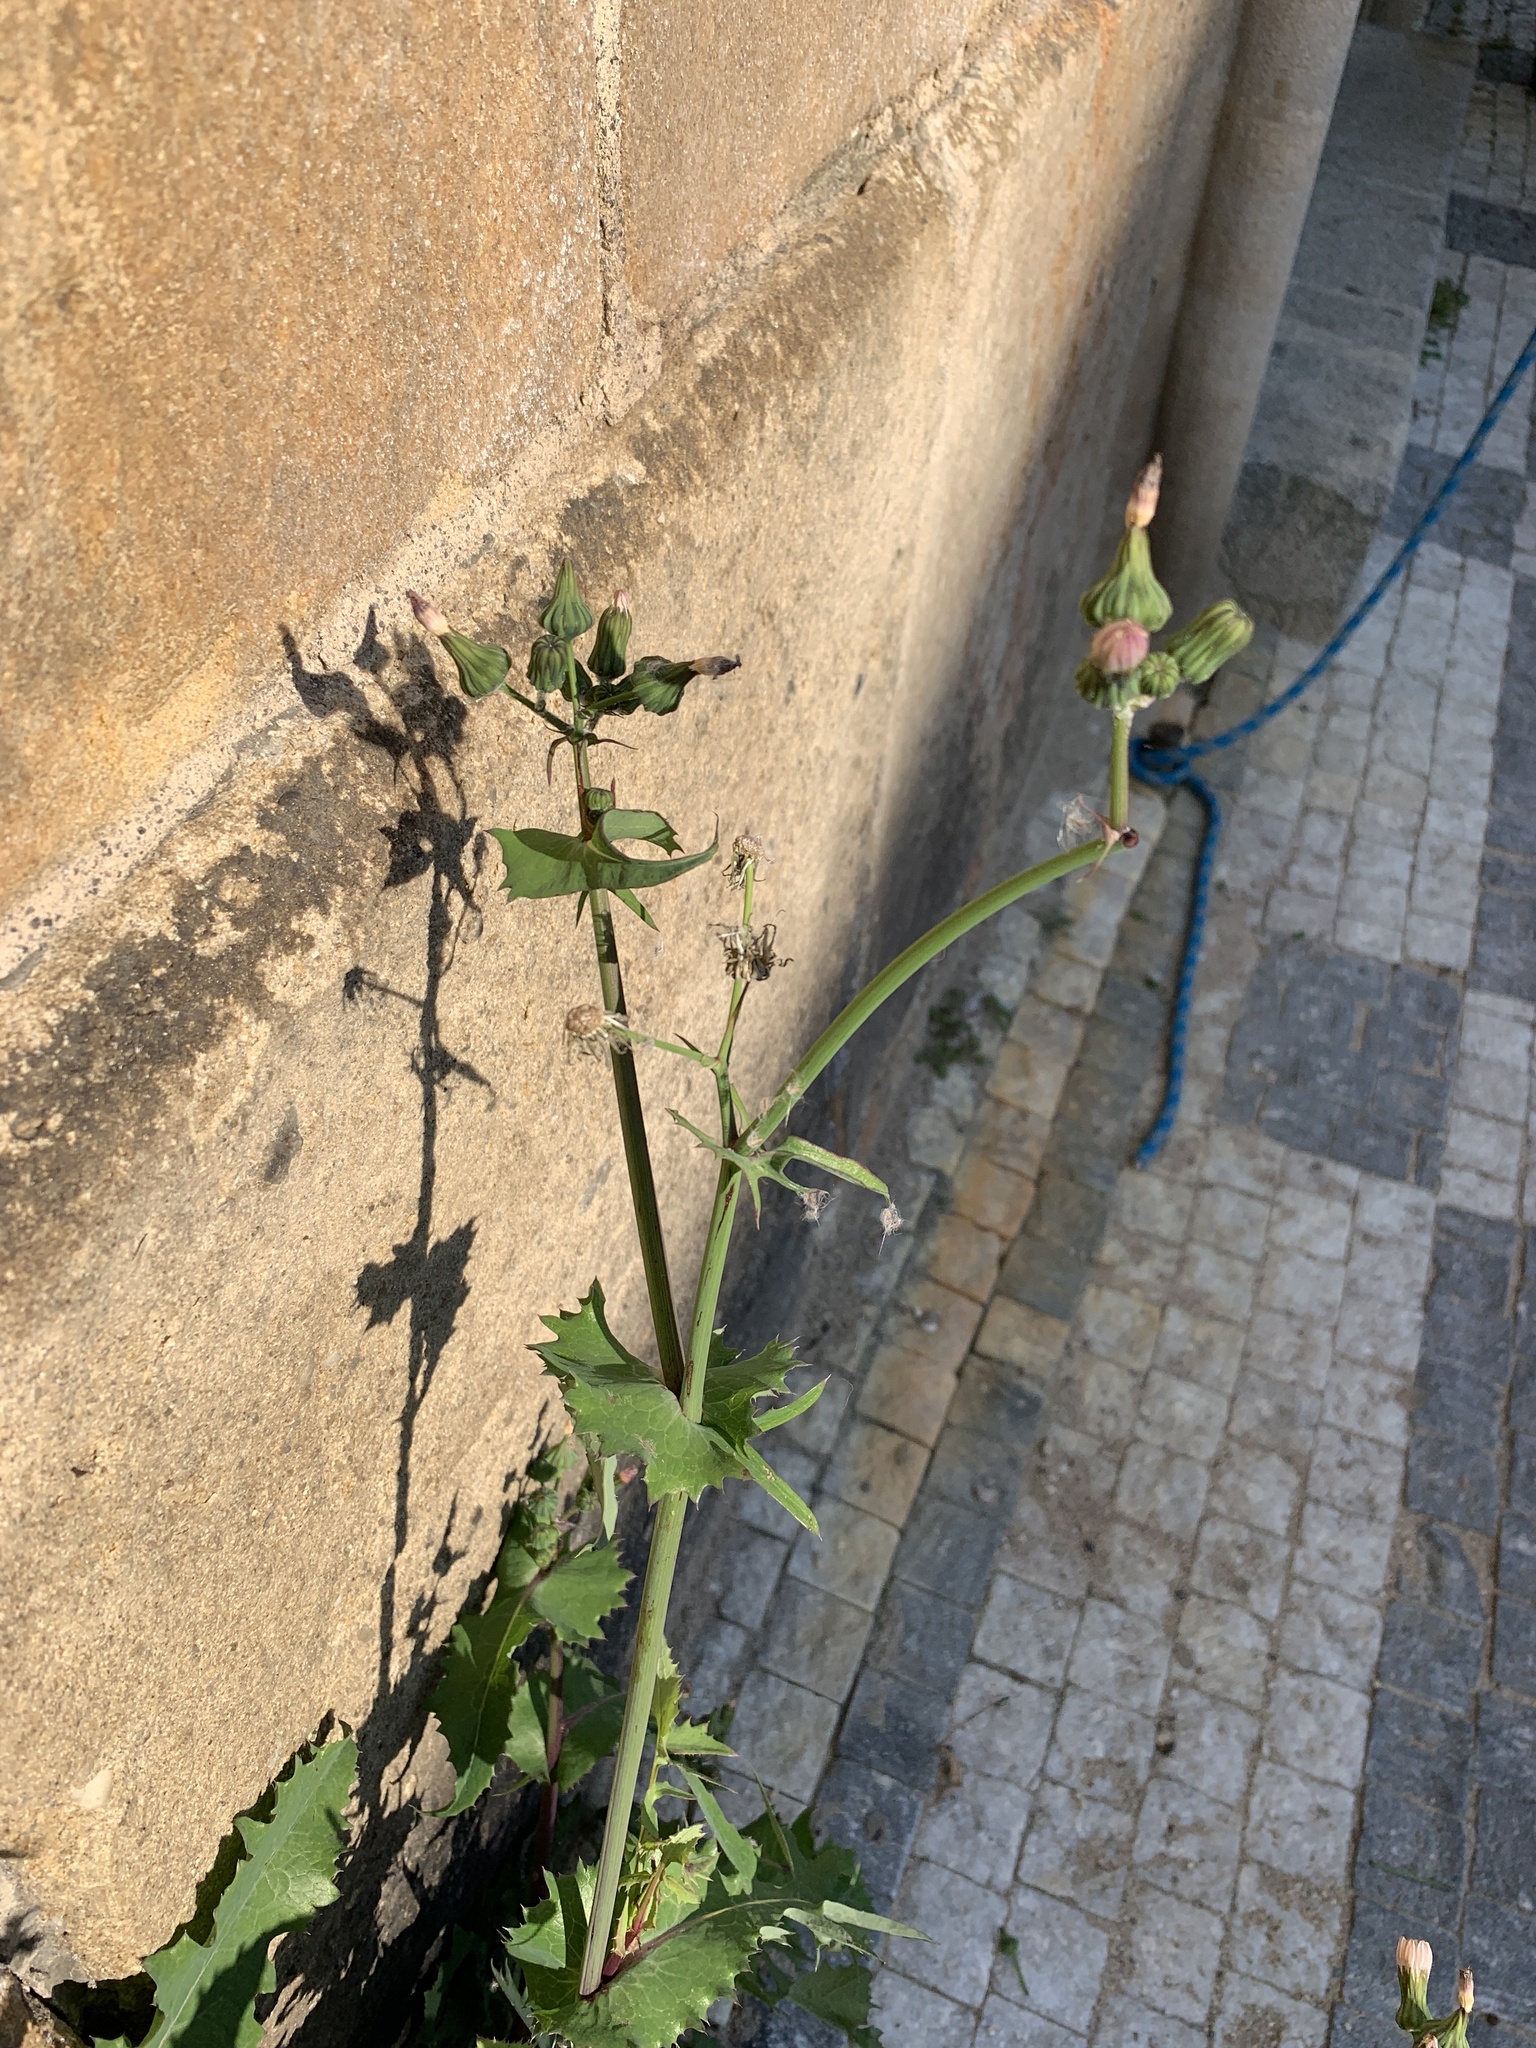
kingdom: Plantae
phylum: Tracheophyta
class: Magnoliopsida
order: Asterales
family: Asteraceae
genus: Sonchus
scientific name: Sonchus oleraceus
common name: Common sowthistle
